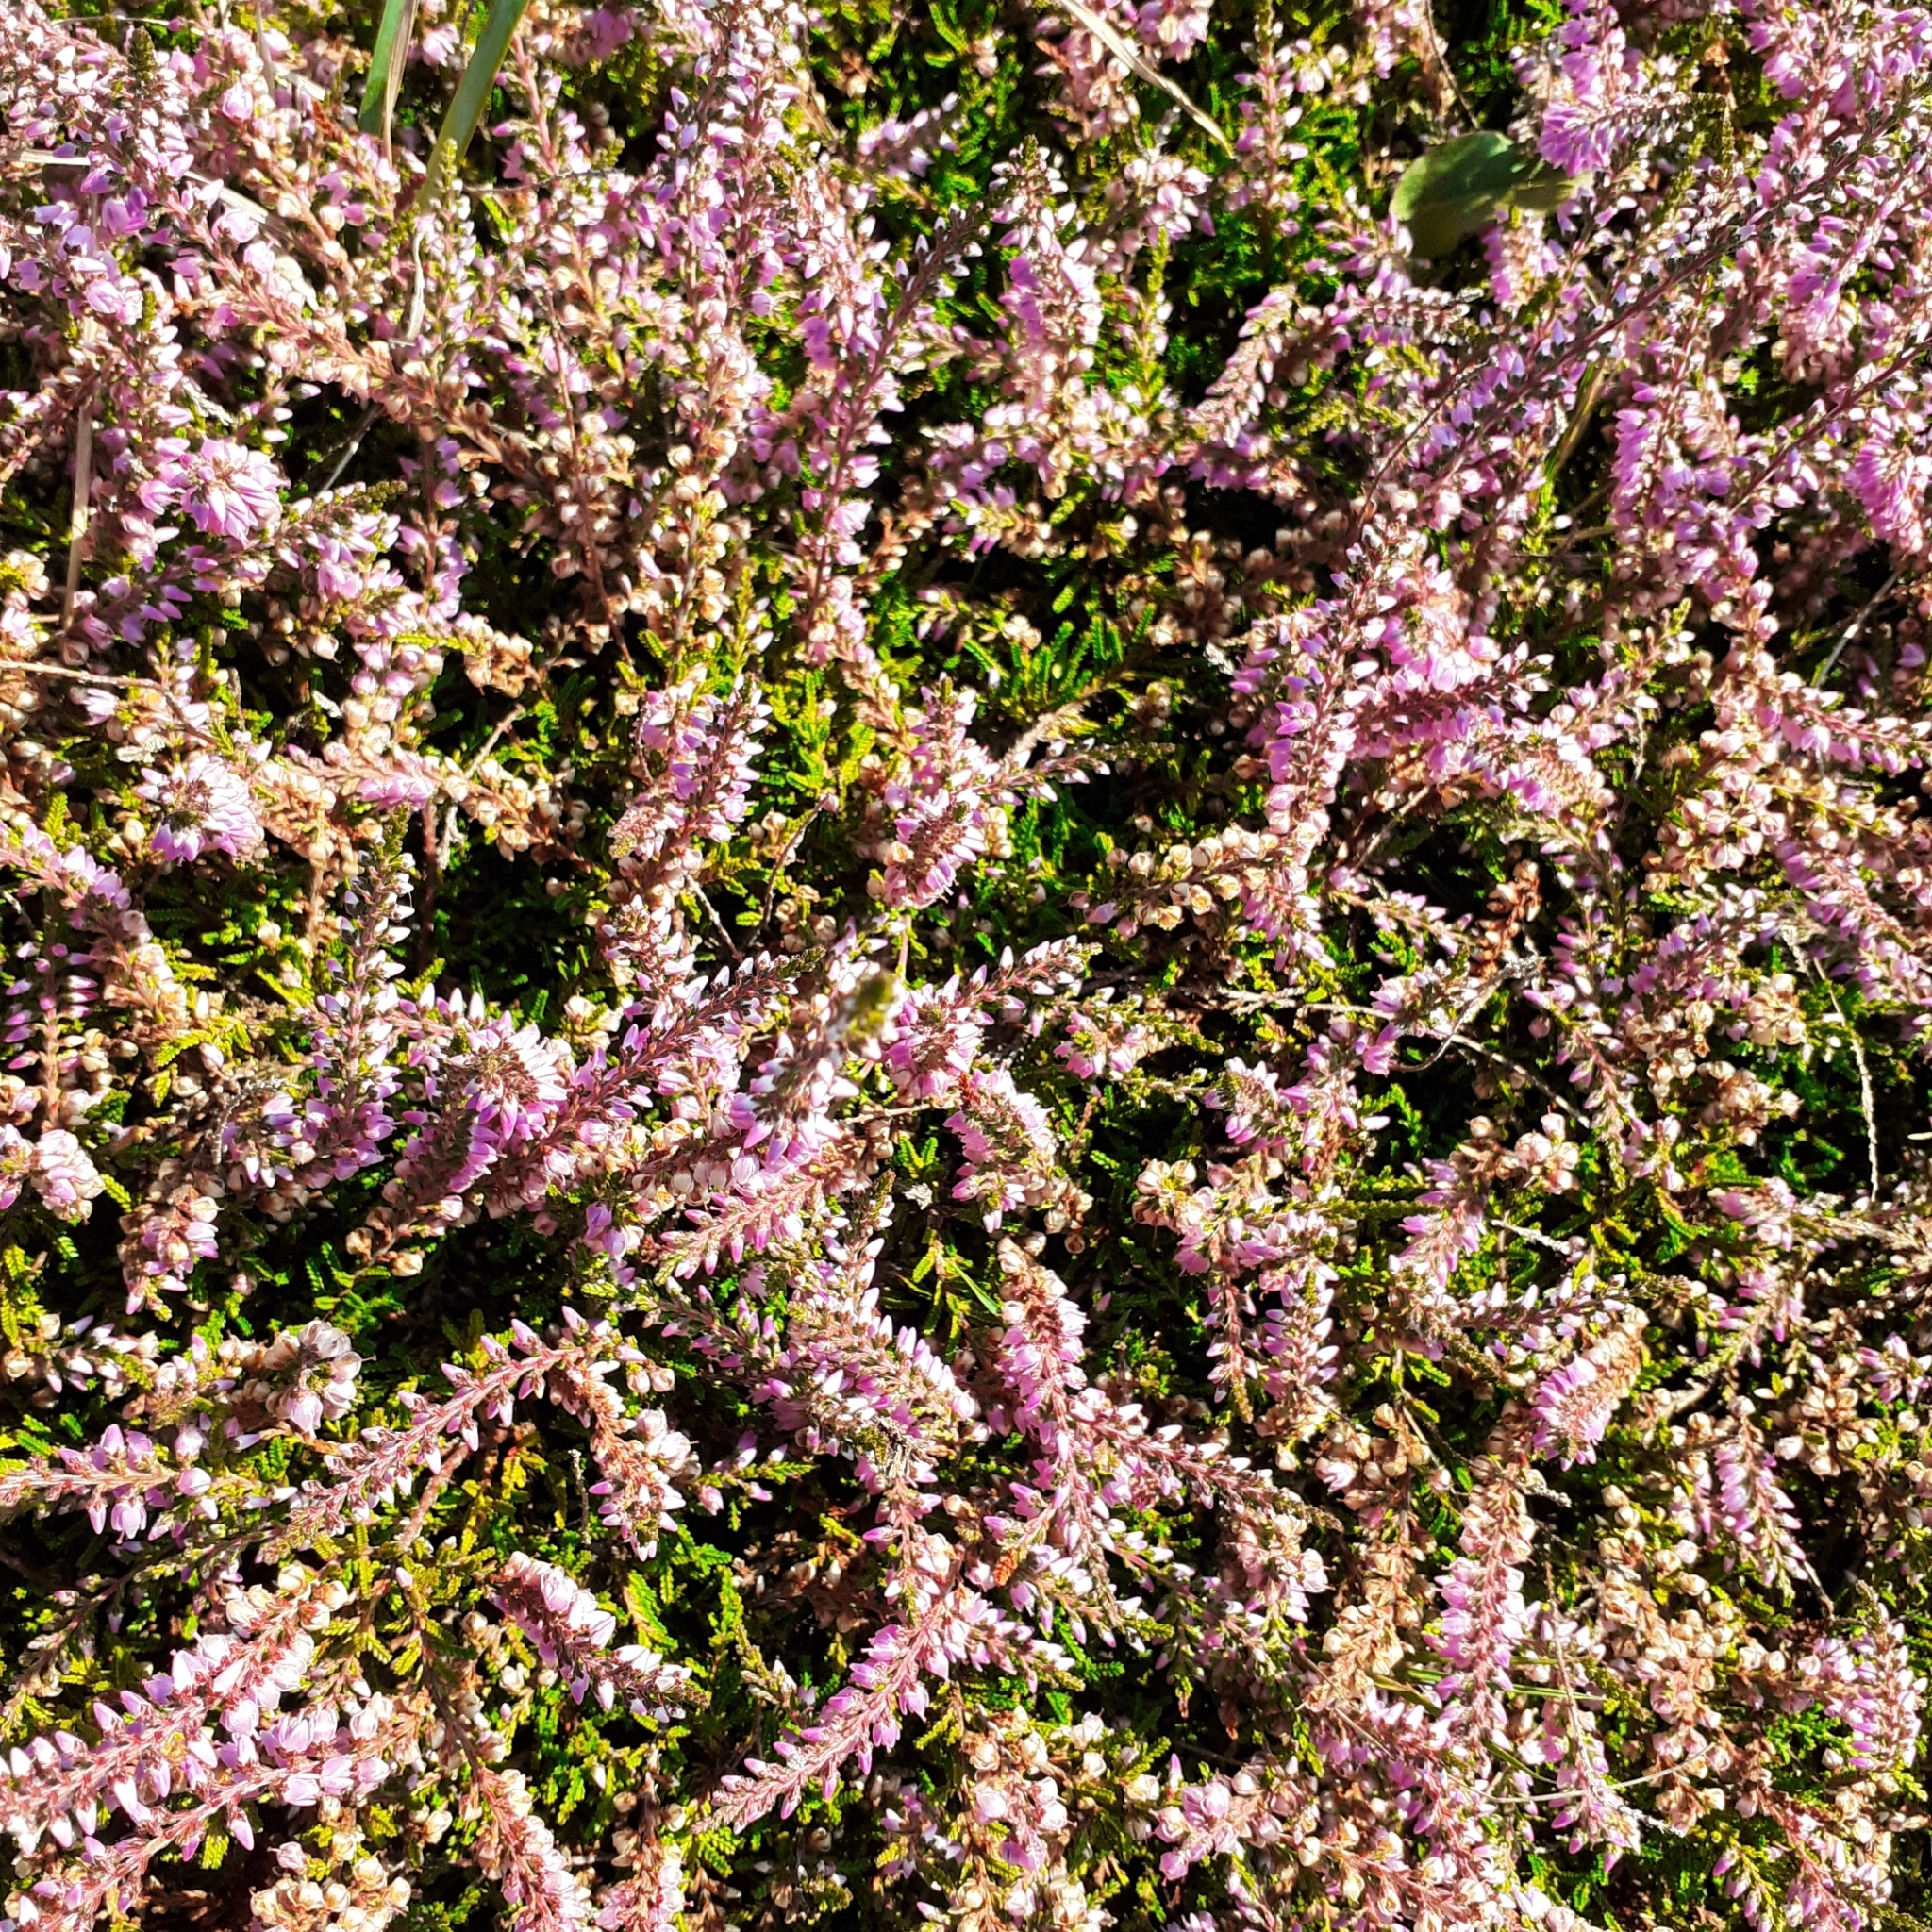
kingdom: Plantae
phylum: Tracheophyta
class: Magnoliopsida
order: Ericales
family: Ericaceae
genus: Calluna
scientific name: Calluna vulgaris
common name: Heather
